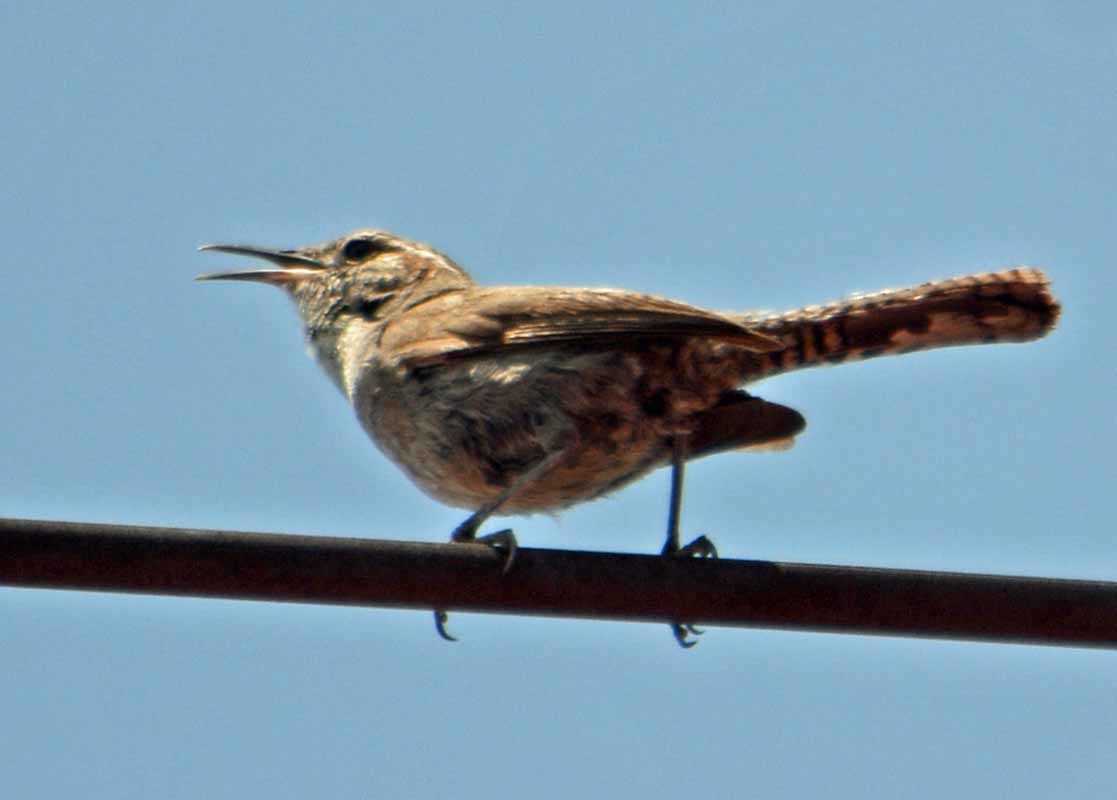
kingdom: Animalia
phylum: Chordata
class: Aves
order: Passeriformes
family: Troglodytidae
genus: Thryomanes
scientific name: Thryomanes bewickii
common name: Bewick's wren
